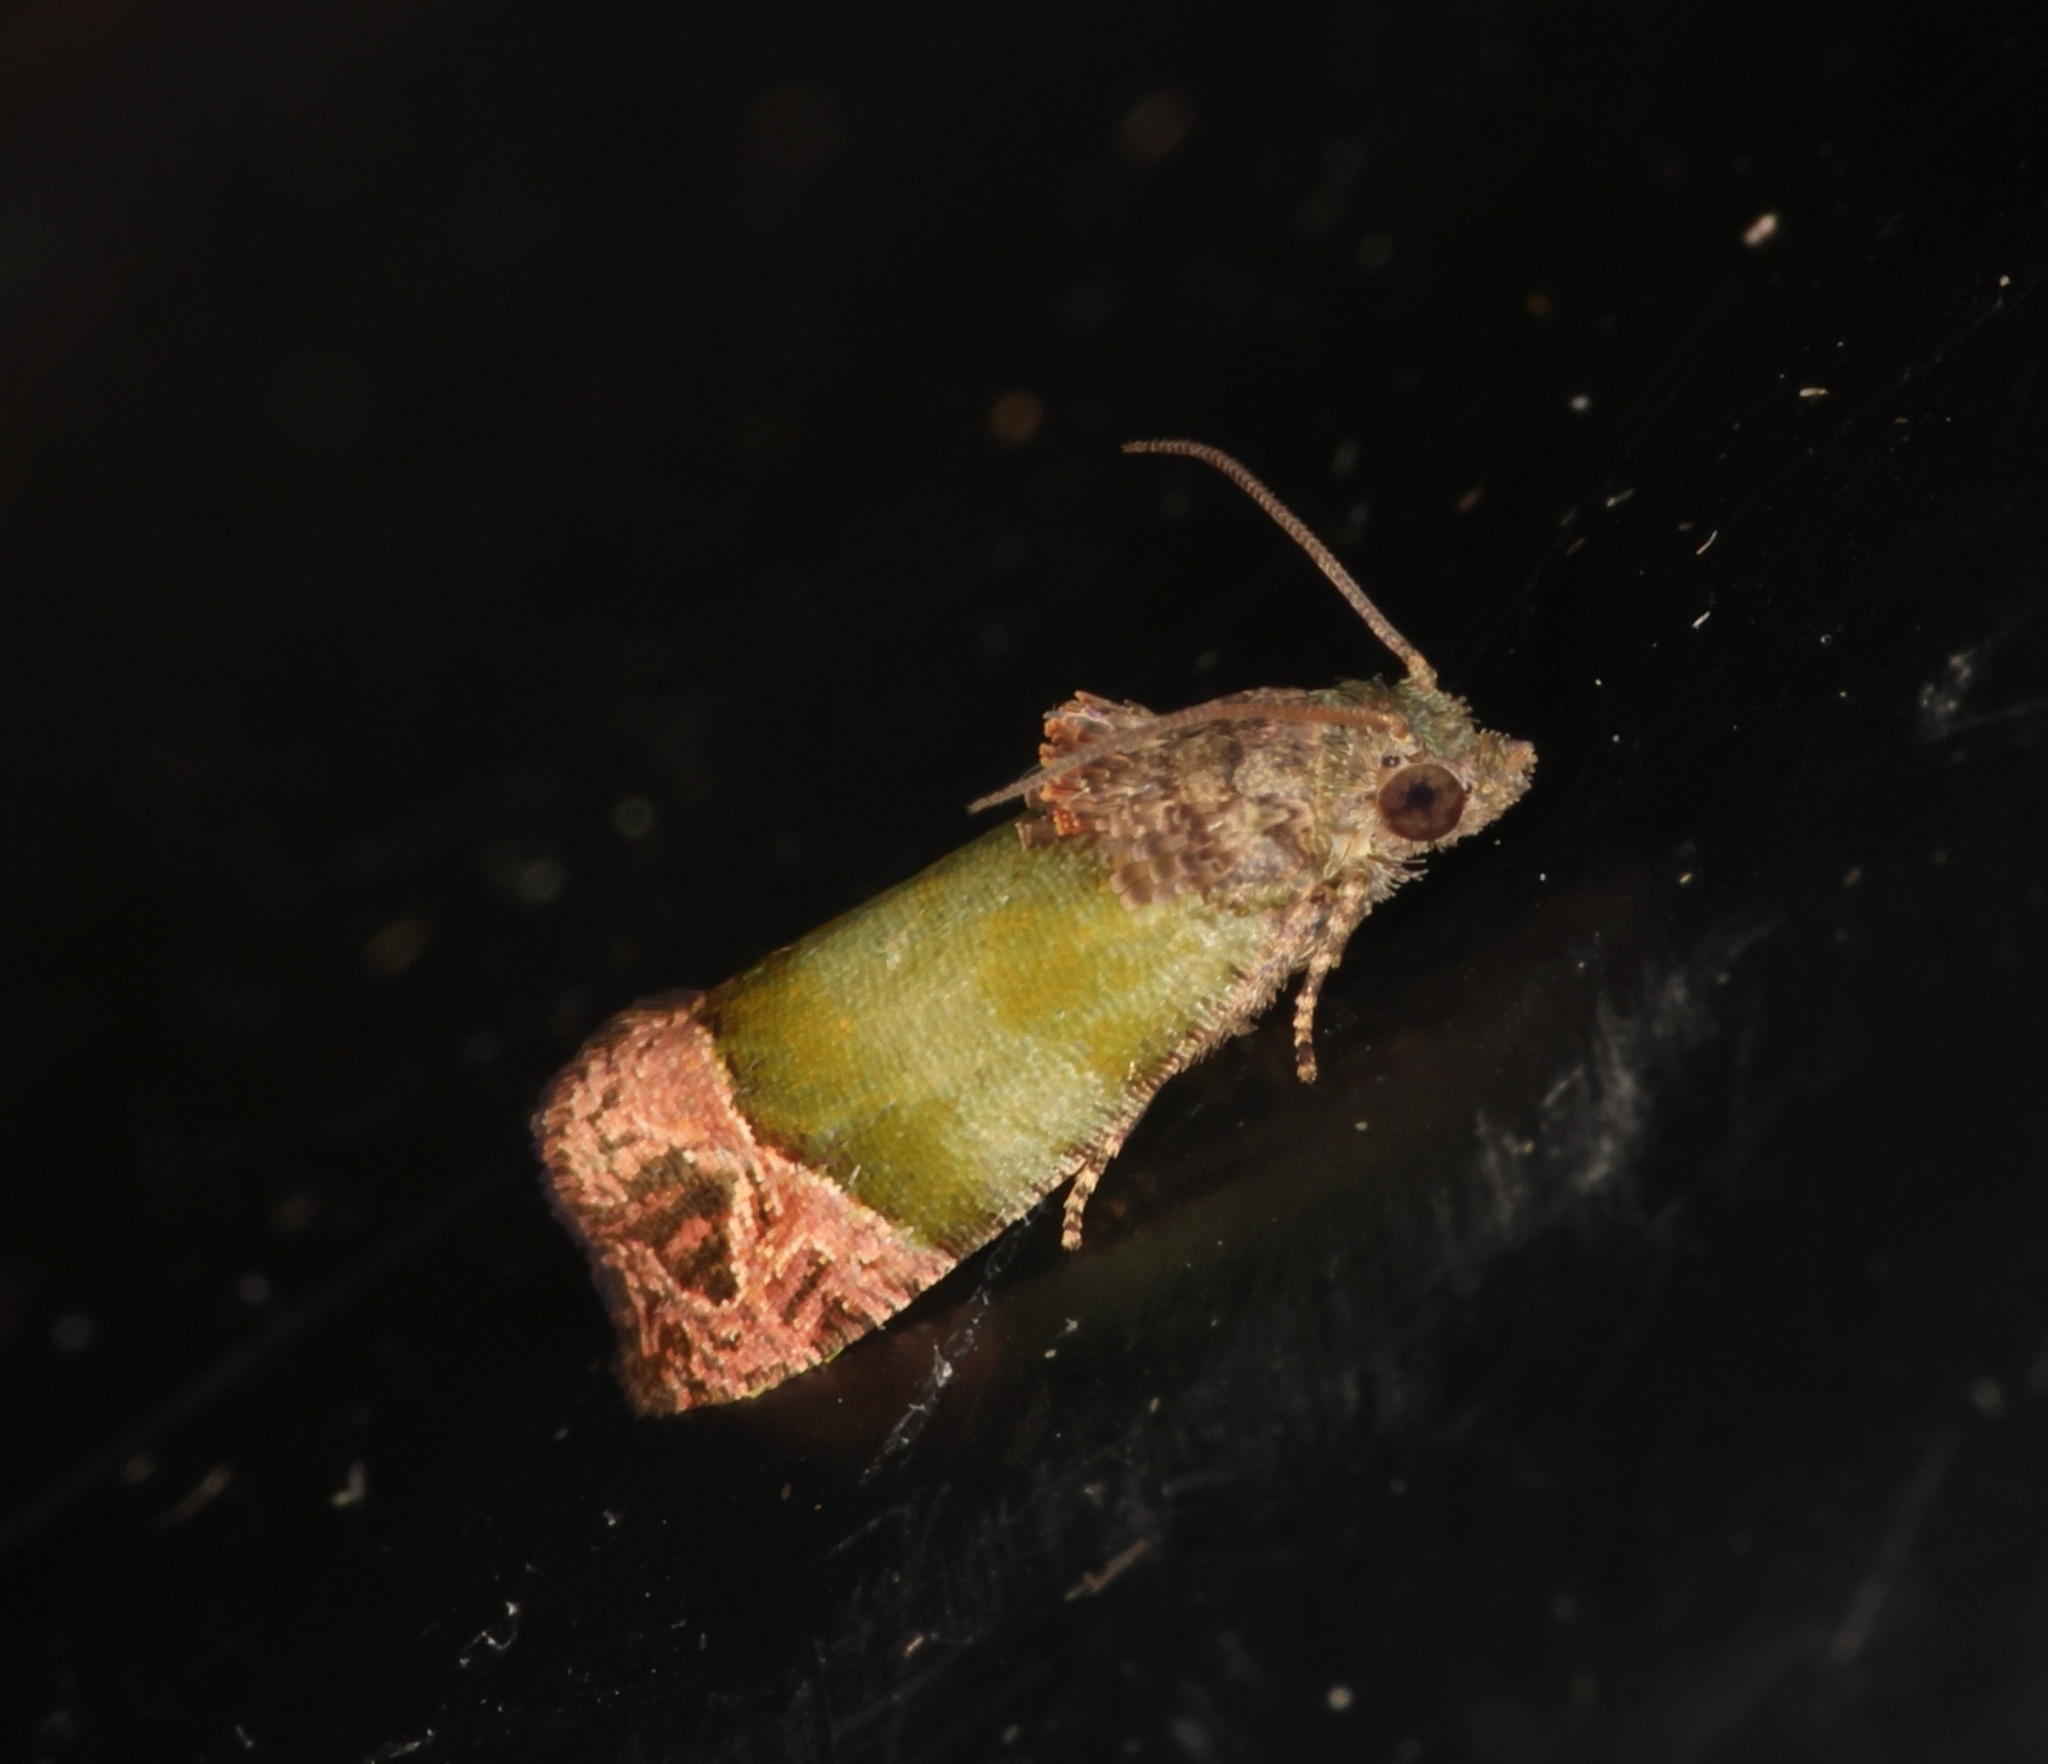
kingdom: Animalia
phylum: Arthropoda
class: Insecta
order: Lepidoptera
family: Tortricidae
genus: Sorolopha
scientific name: Sorolopha liochlora
